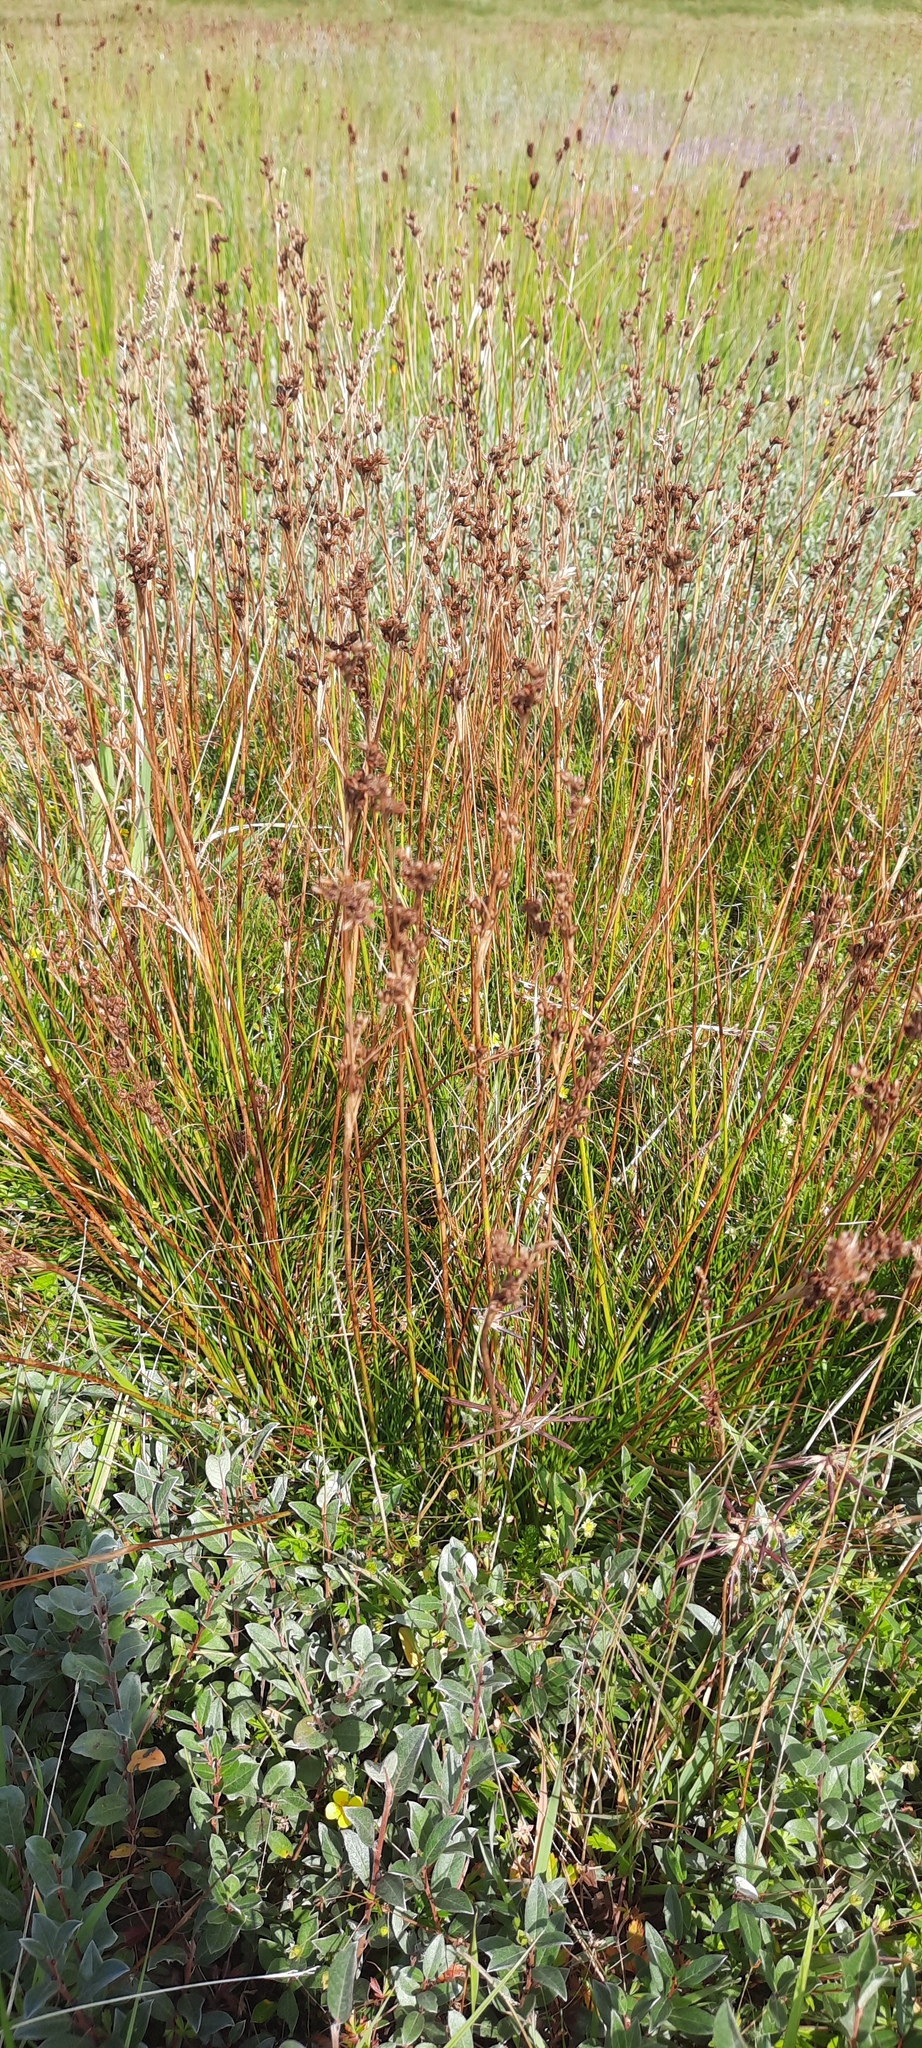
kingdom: Plantae
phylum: Tracheophyta
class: Liliopsida
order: Poales
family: Juncaceae
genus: Juncus
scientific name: Juncus squarrosus
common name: Heath rush
